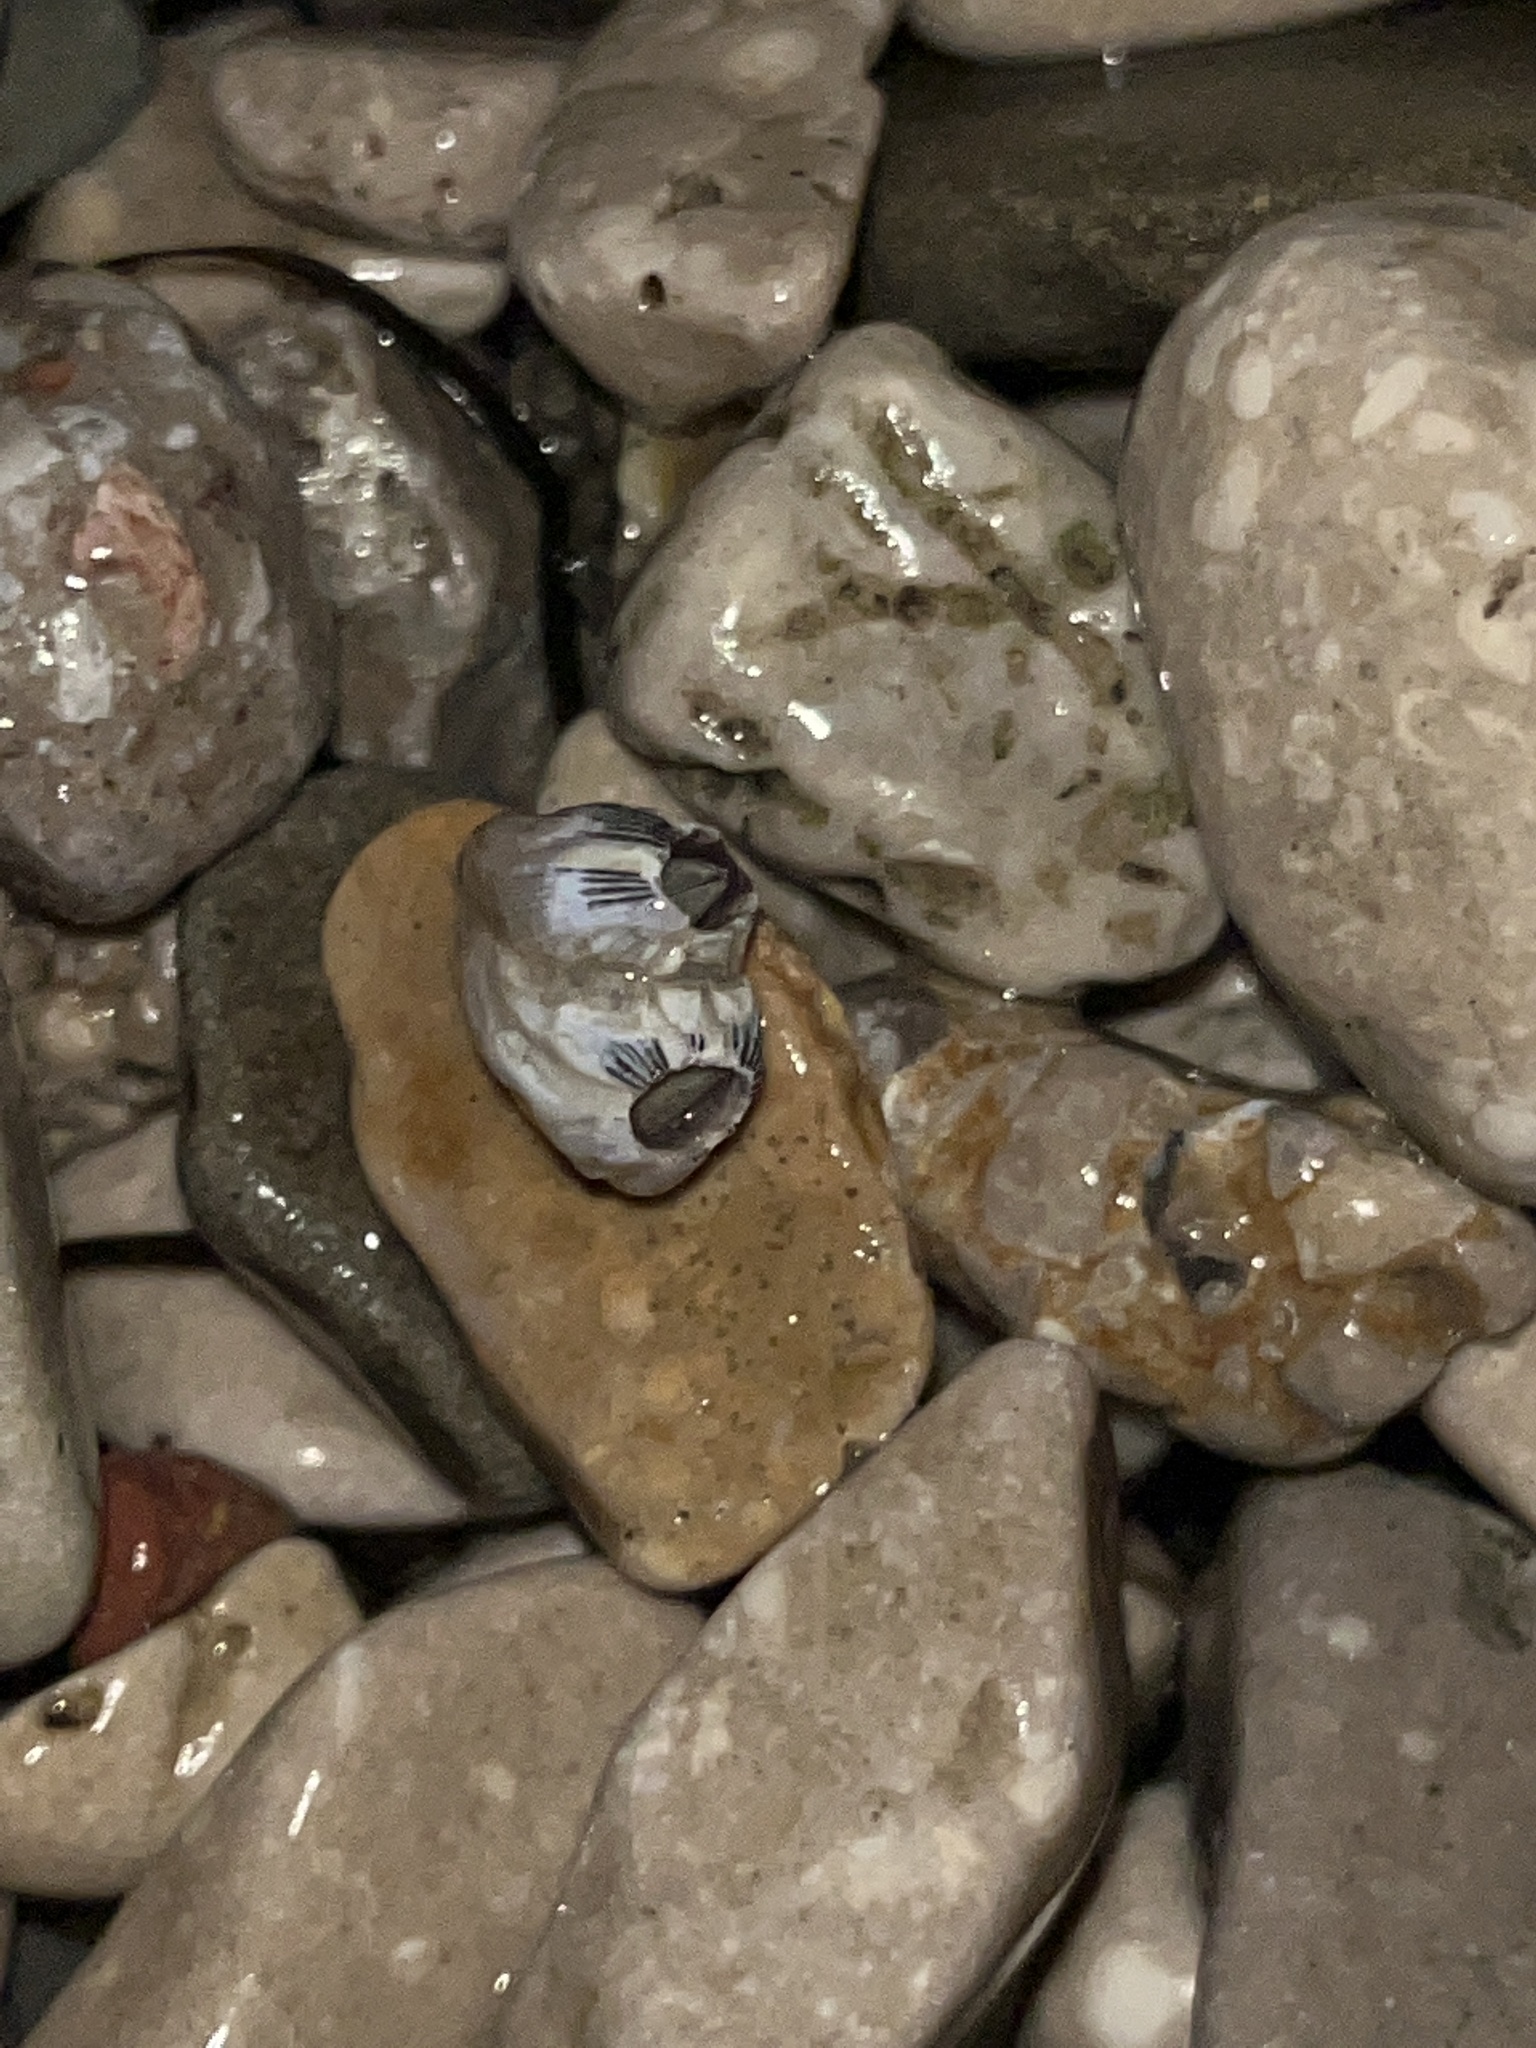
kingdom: Animalia
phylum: Arthropoda
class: Maxillopoda
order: Sessilia
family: Balanidae
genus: Perforatus
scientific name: Perforatus perforatus
